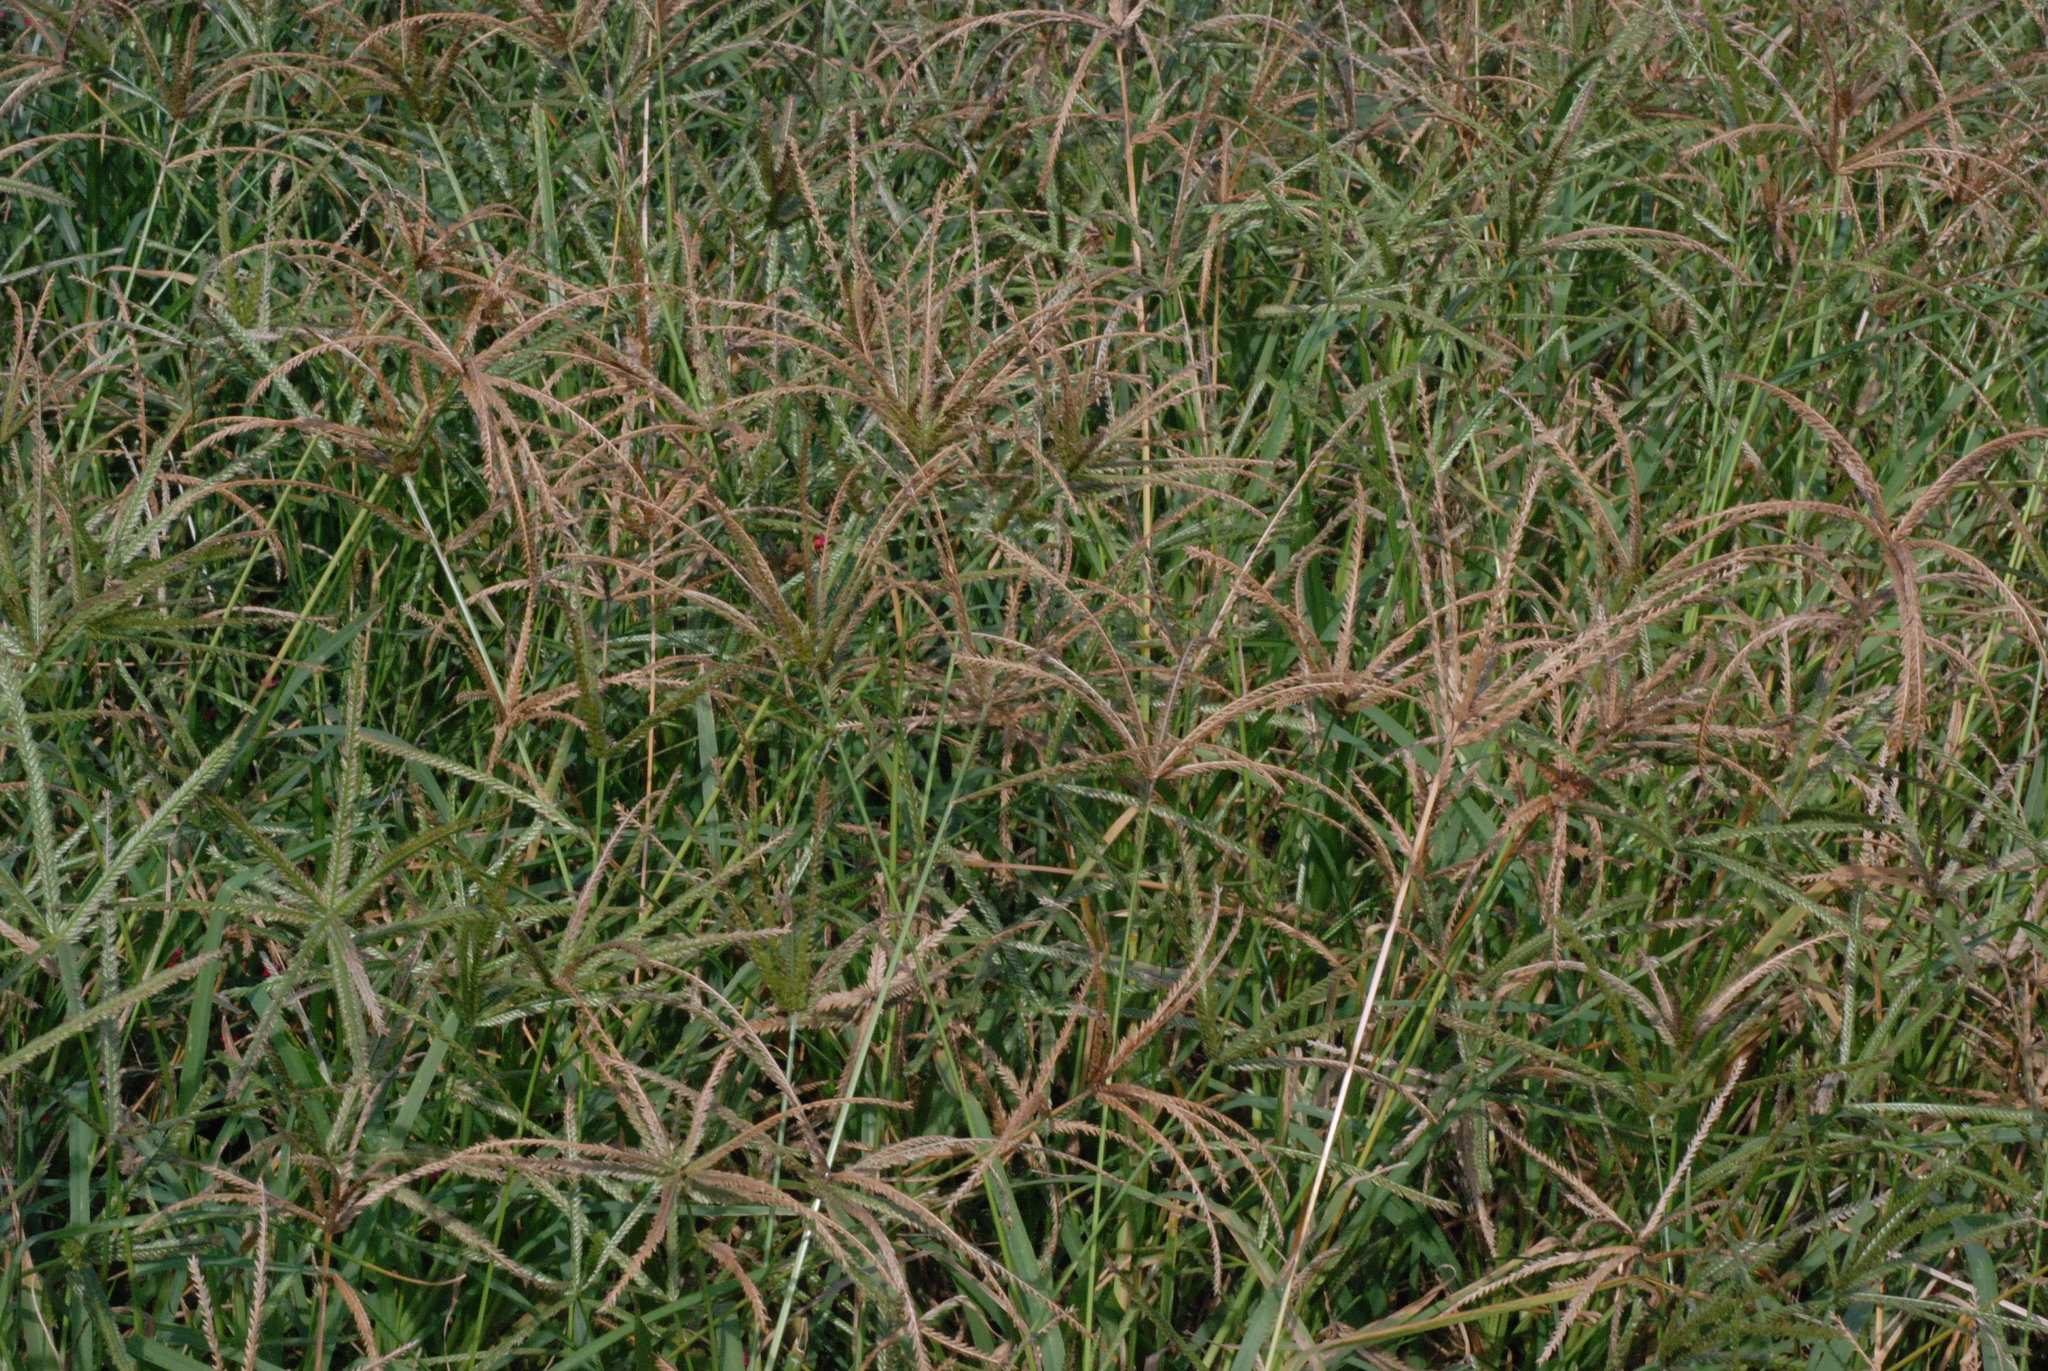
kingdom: Plantae
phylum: Tracheophyta
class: Liliopsida
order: Poales
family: Poaceae
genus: Eleusine
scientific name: Eleusine indica
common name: Yard-grass
